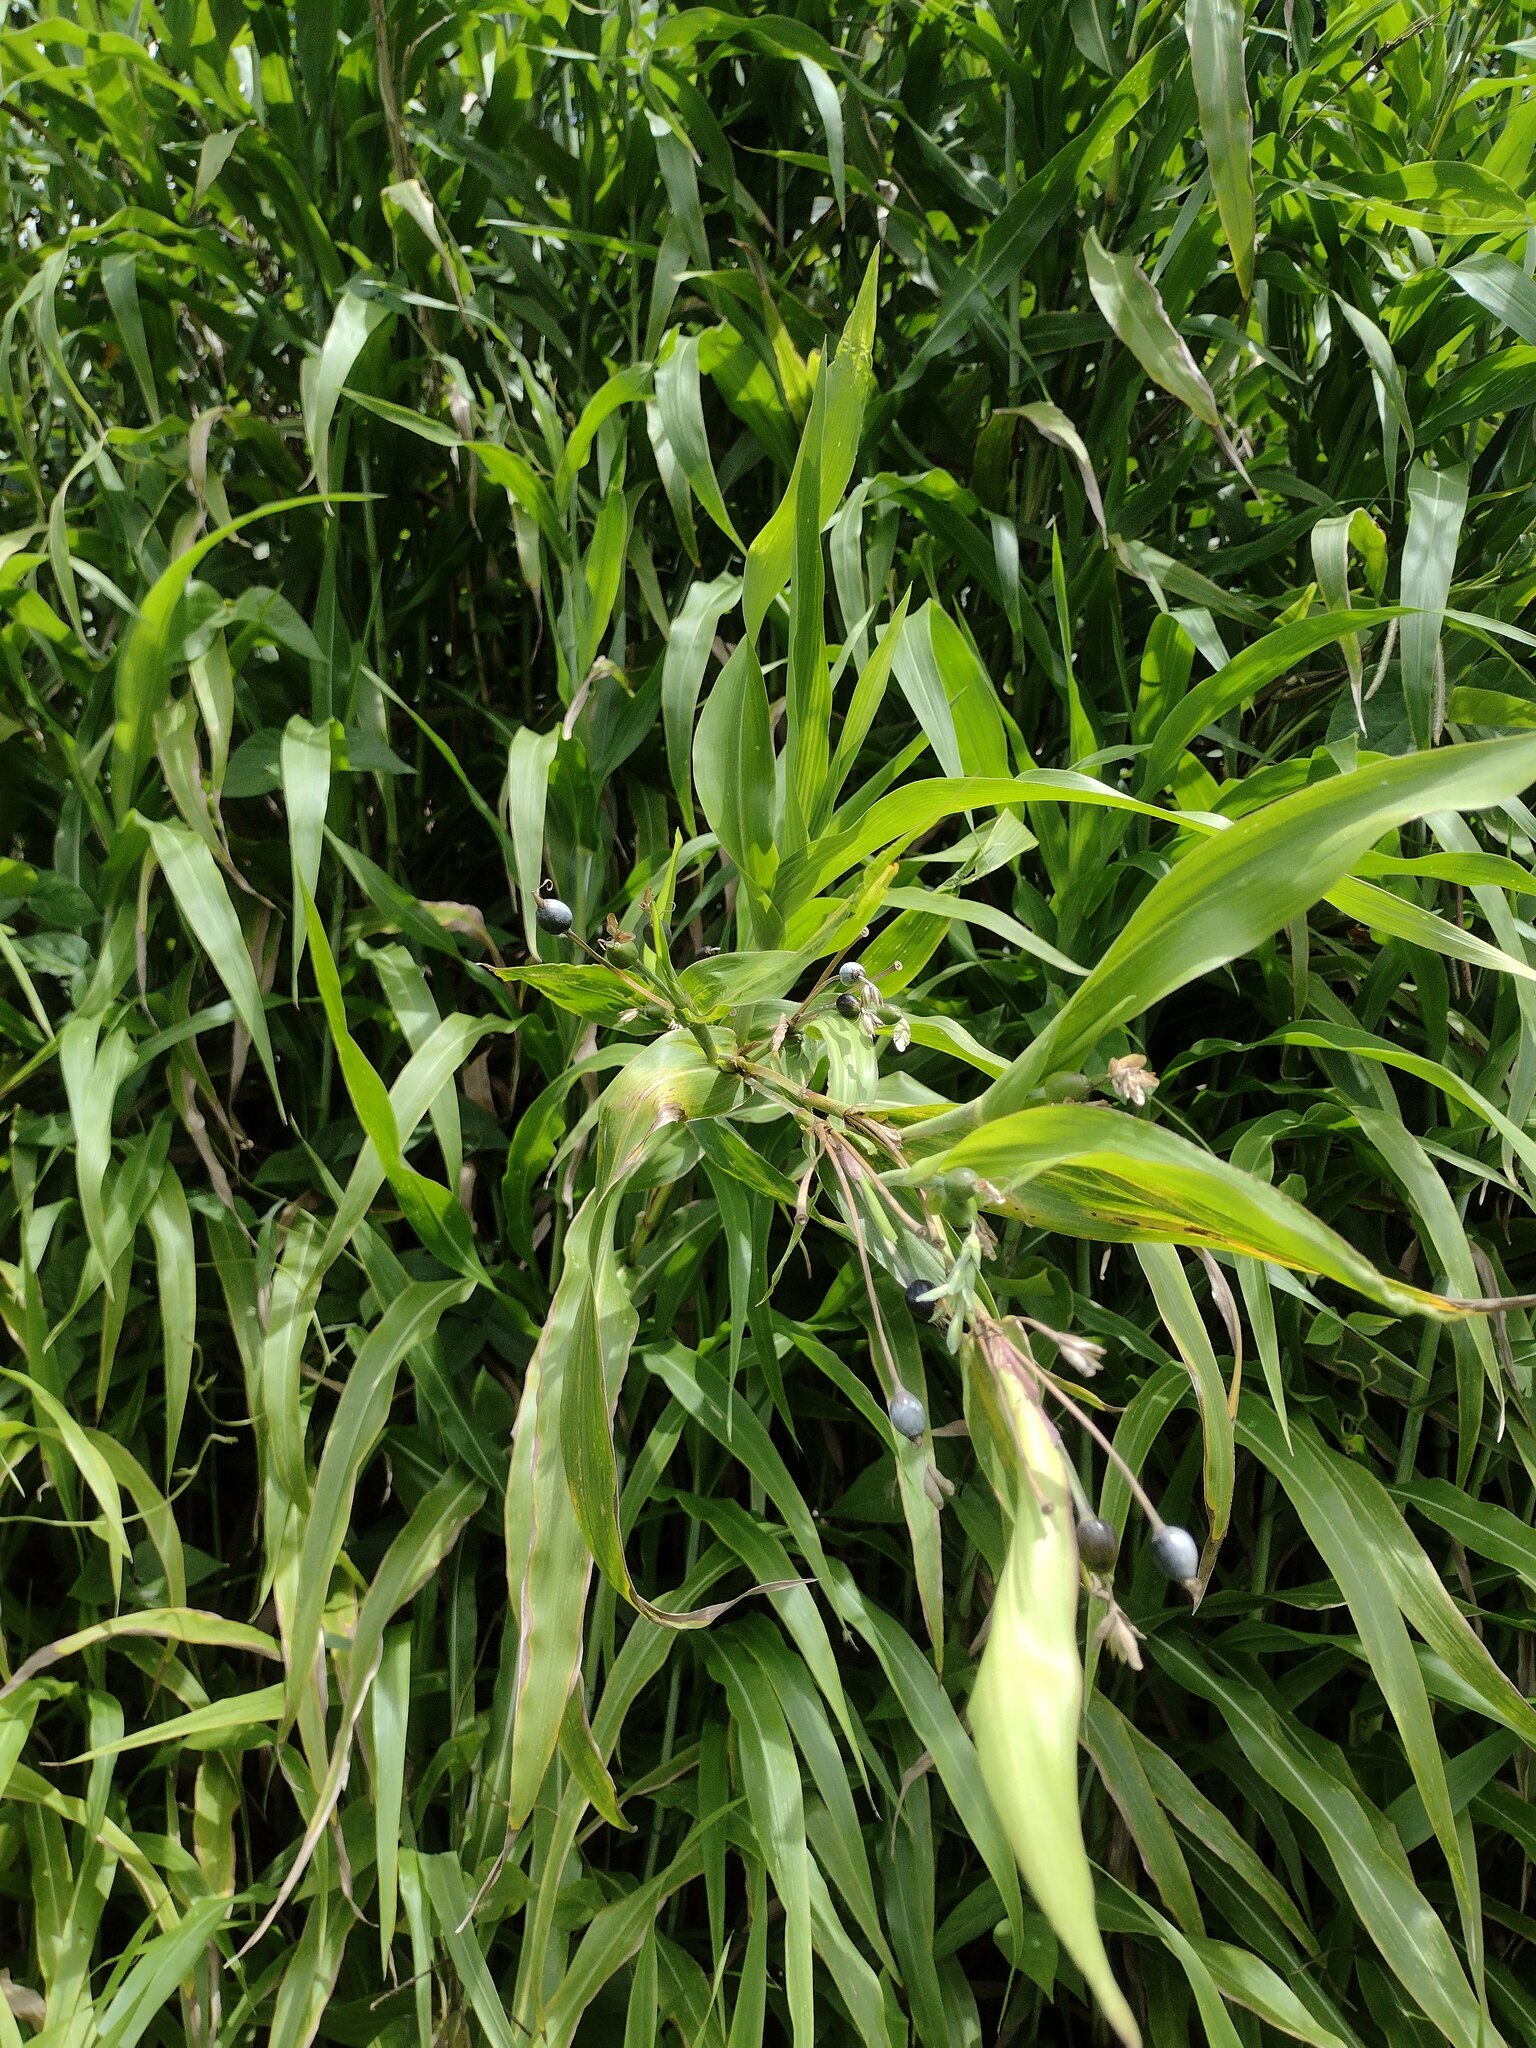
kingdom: Plantae
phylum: Tracheophyta
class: Liliopsida
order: Poales
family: Poaceae
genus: Coix
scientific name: Coix lacryma-jobi
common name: Job's tears
